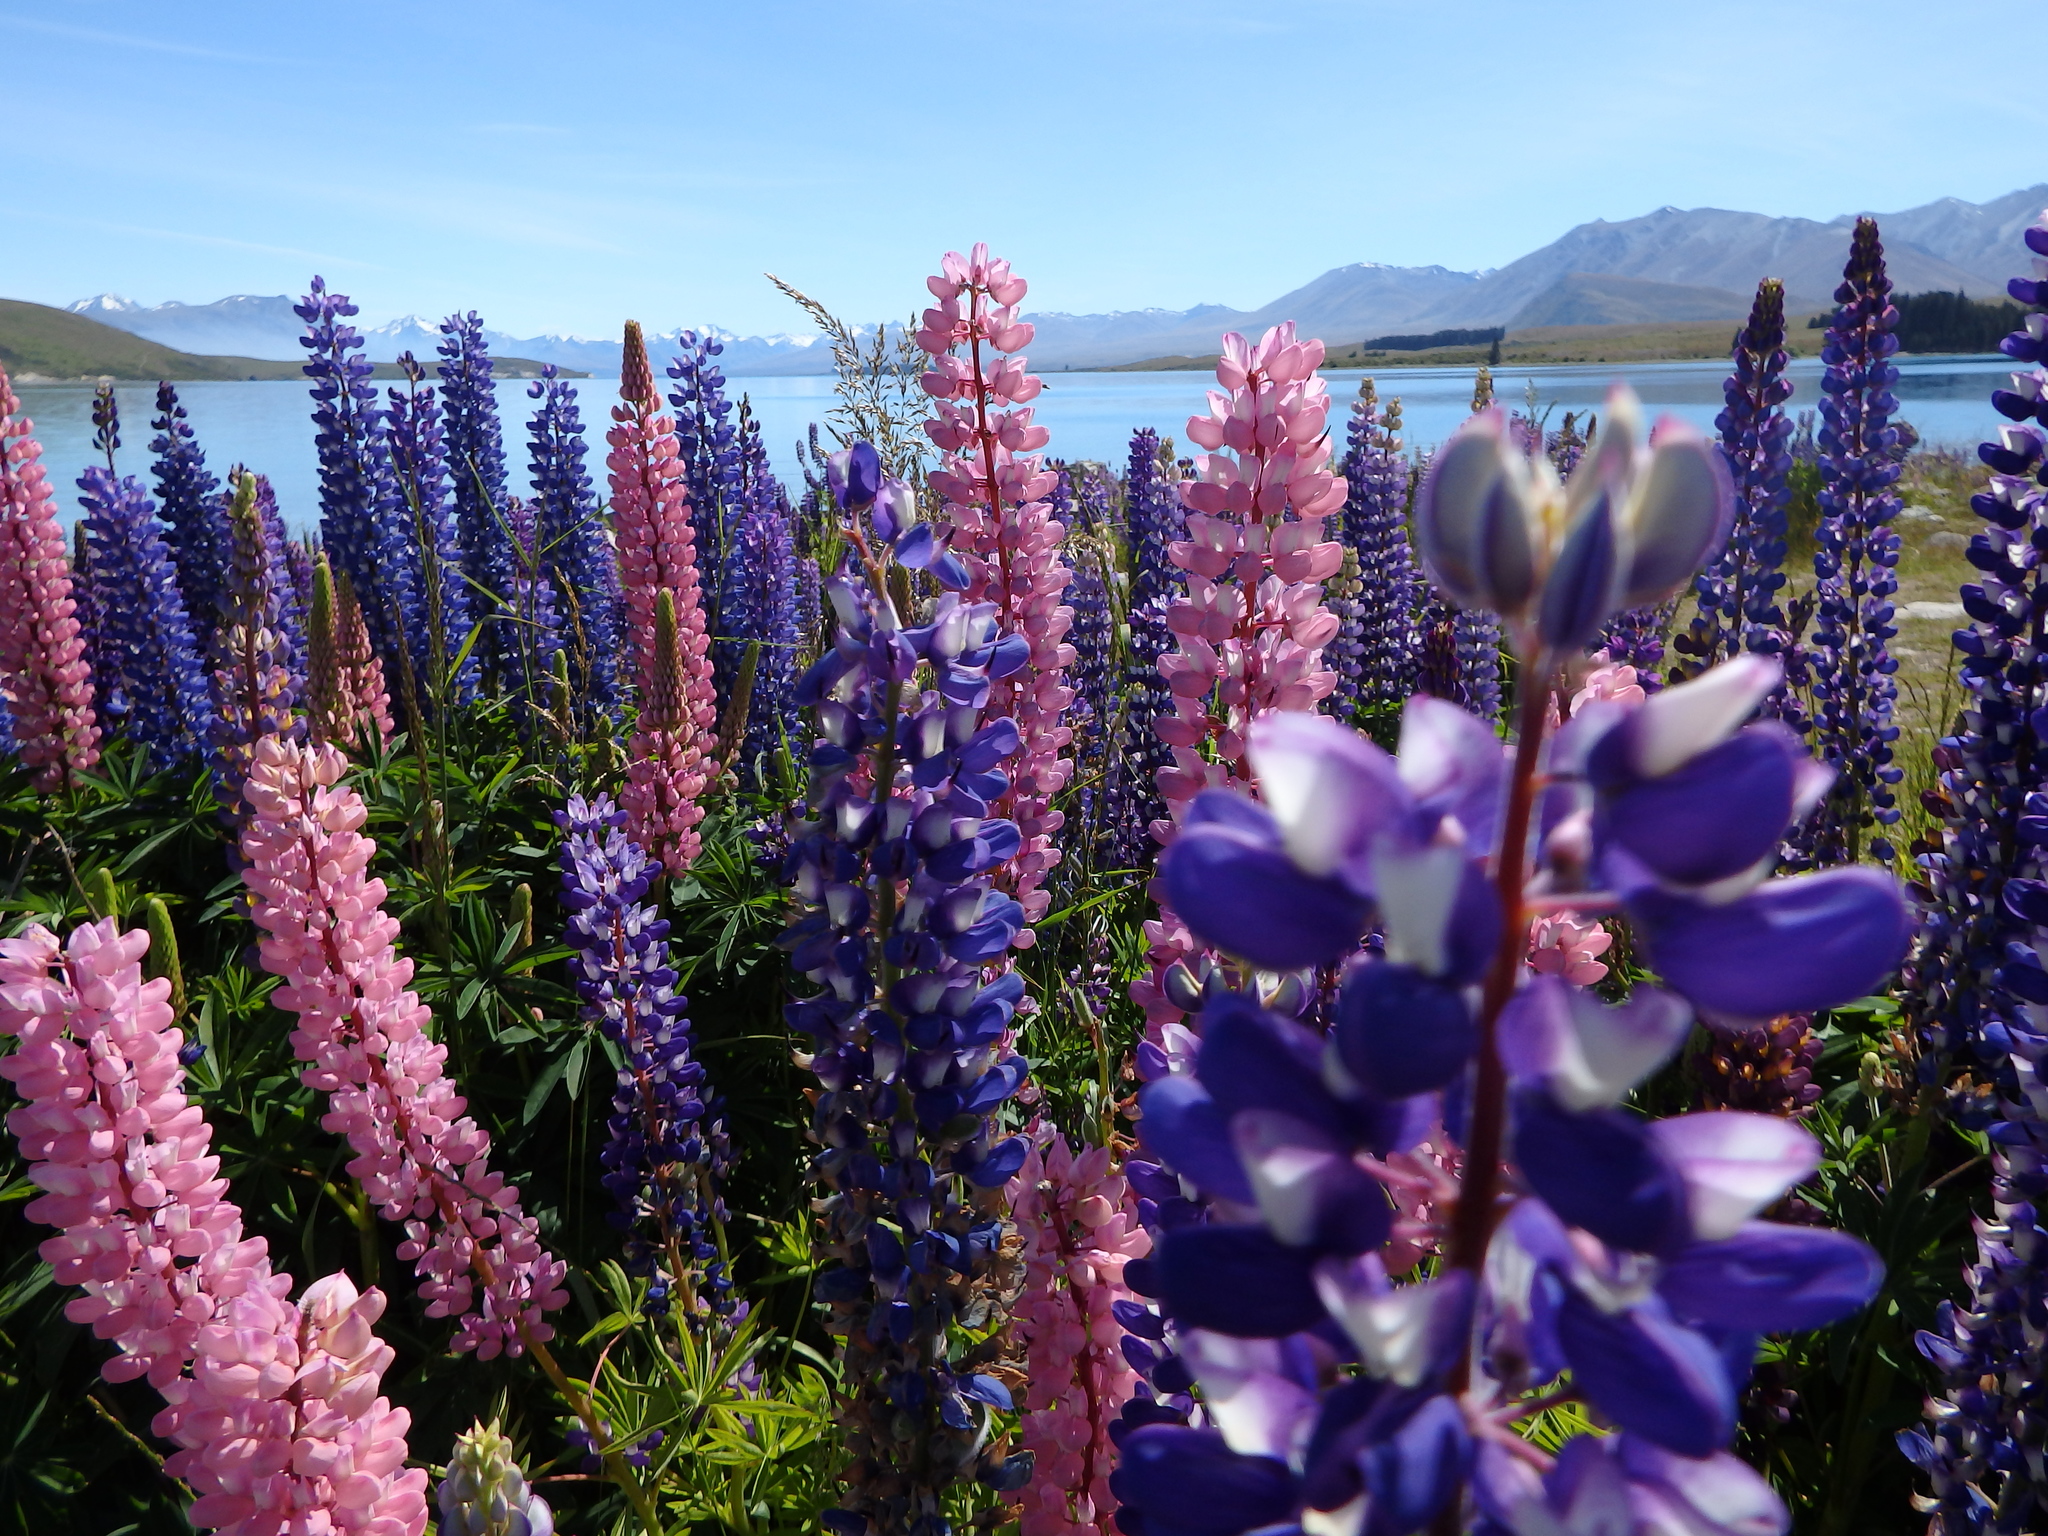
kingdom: Plantae
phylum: Tracheophyta
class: Magnoliopsida
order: Fabales
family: Fabaceae
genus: Lupinus
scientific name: Lupinus polyphyllus
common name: Garden lupin
